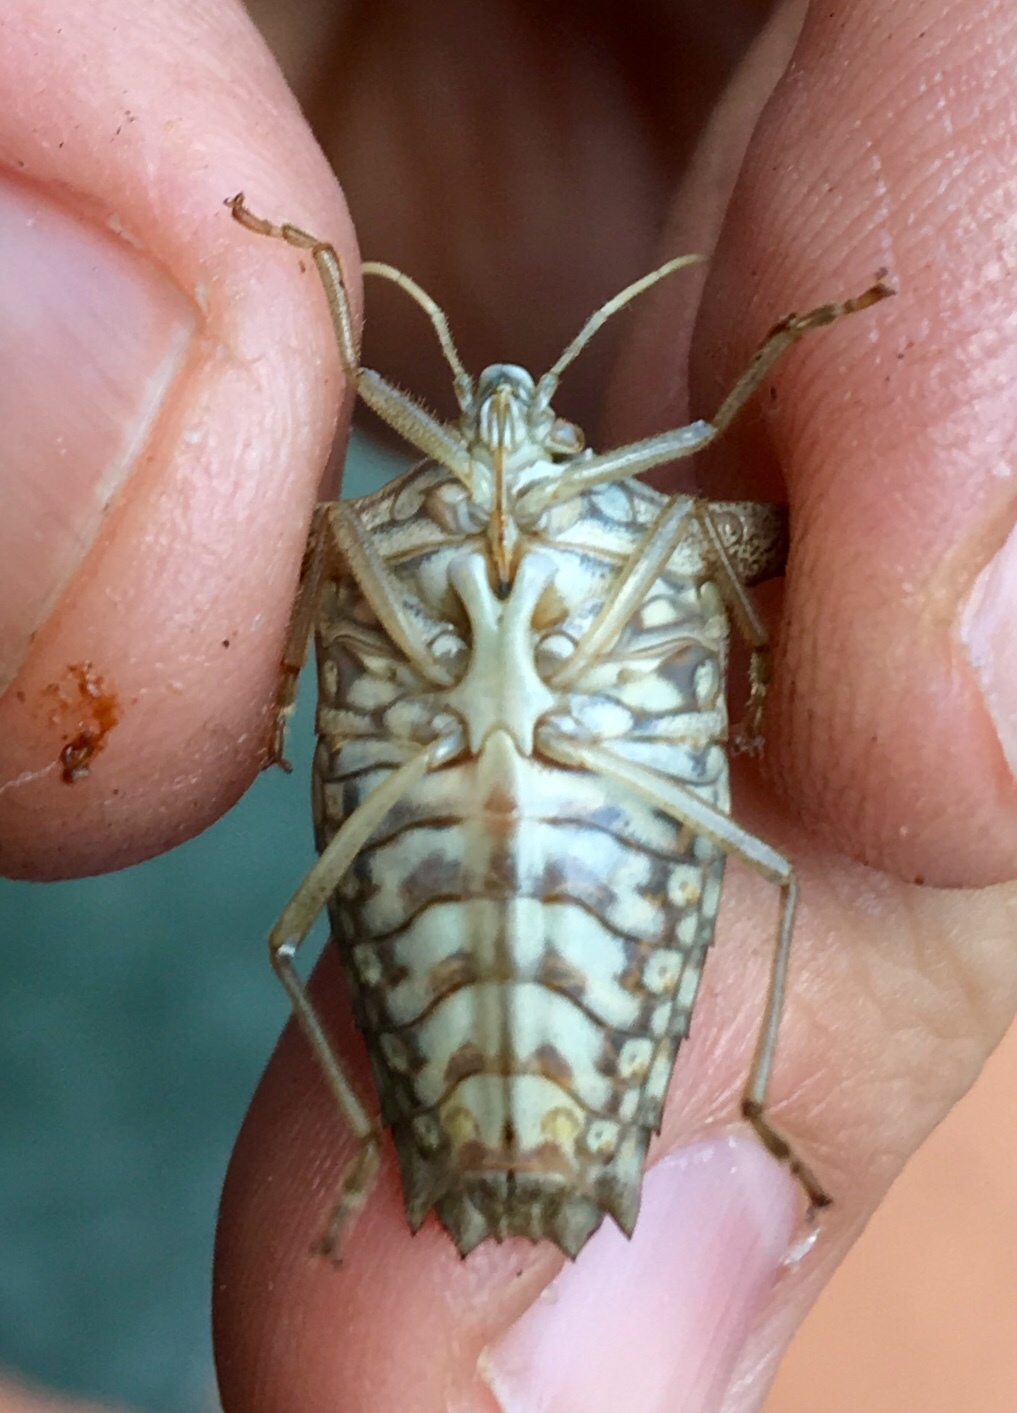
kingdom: Animalia
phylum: Arthropoda
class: Insecta
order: Hemiptera
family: Pentatomidae
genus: Edessa
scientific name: Edessa
